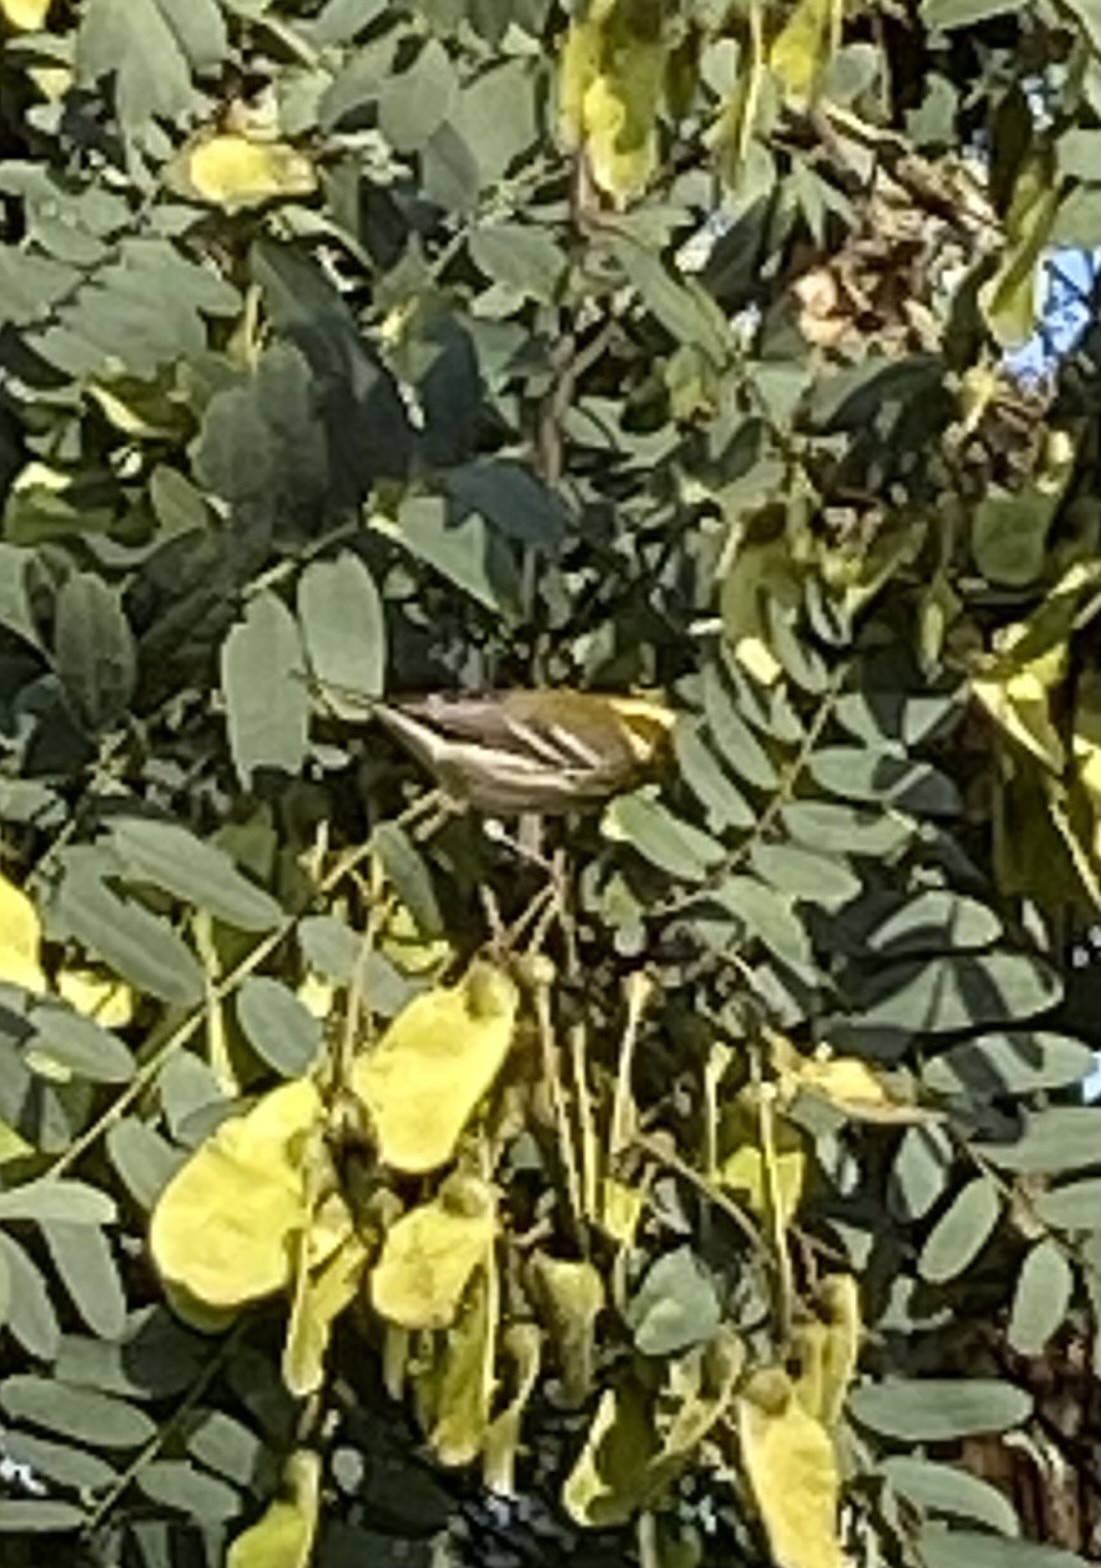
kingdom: Animalia
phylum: Chordata
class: Aves
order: Passeriformes
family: Parulidae
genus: Setophaga
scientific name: Setophaga townsendi
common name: Townsend's warbler
